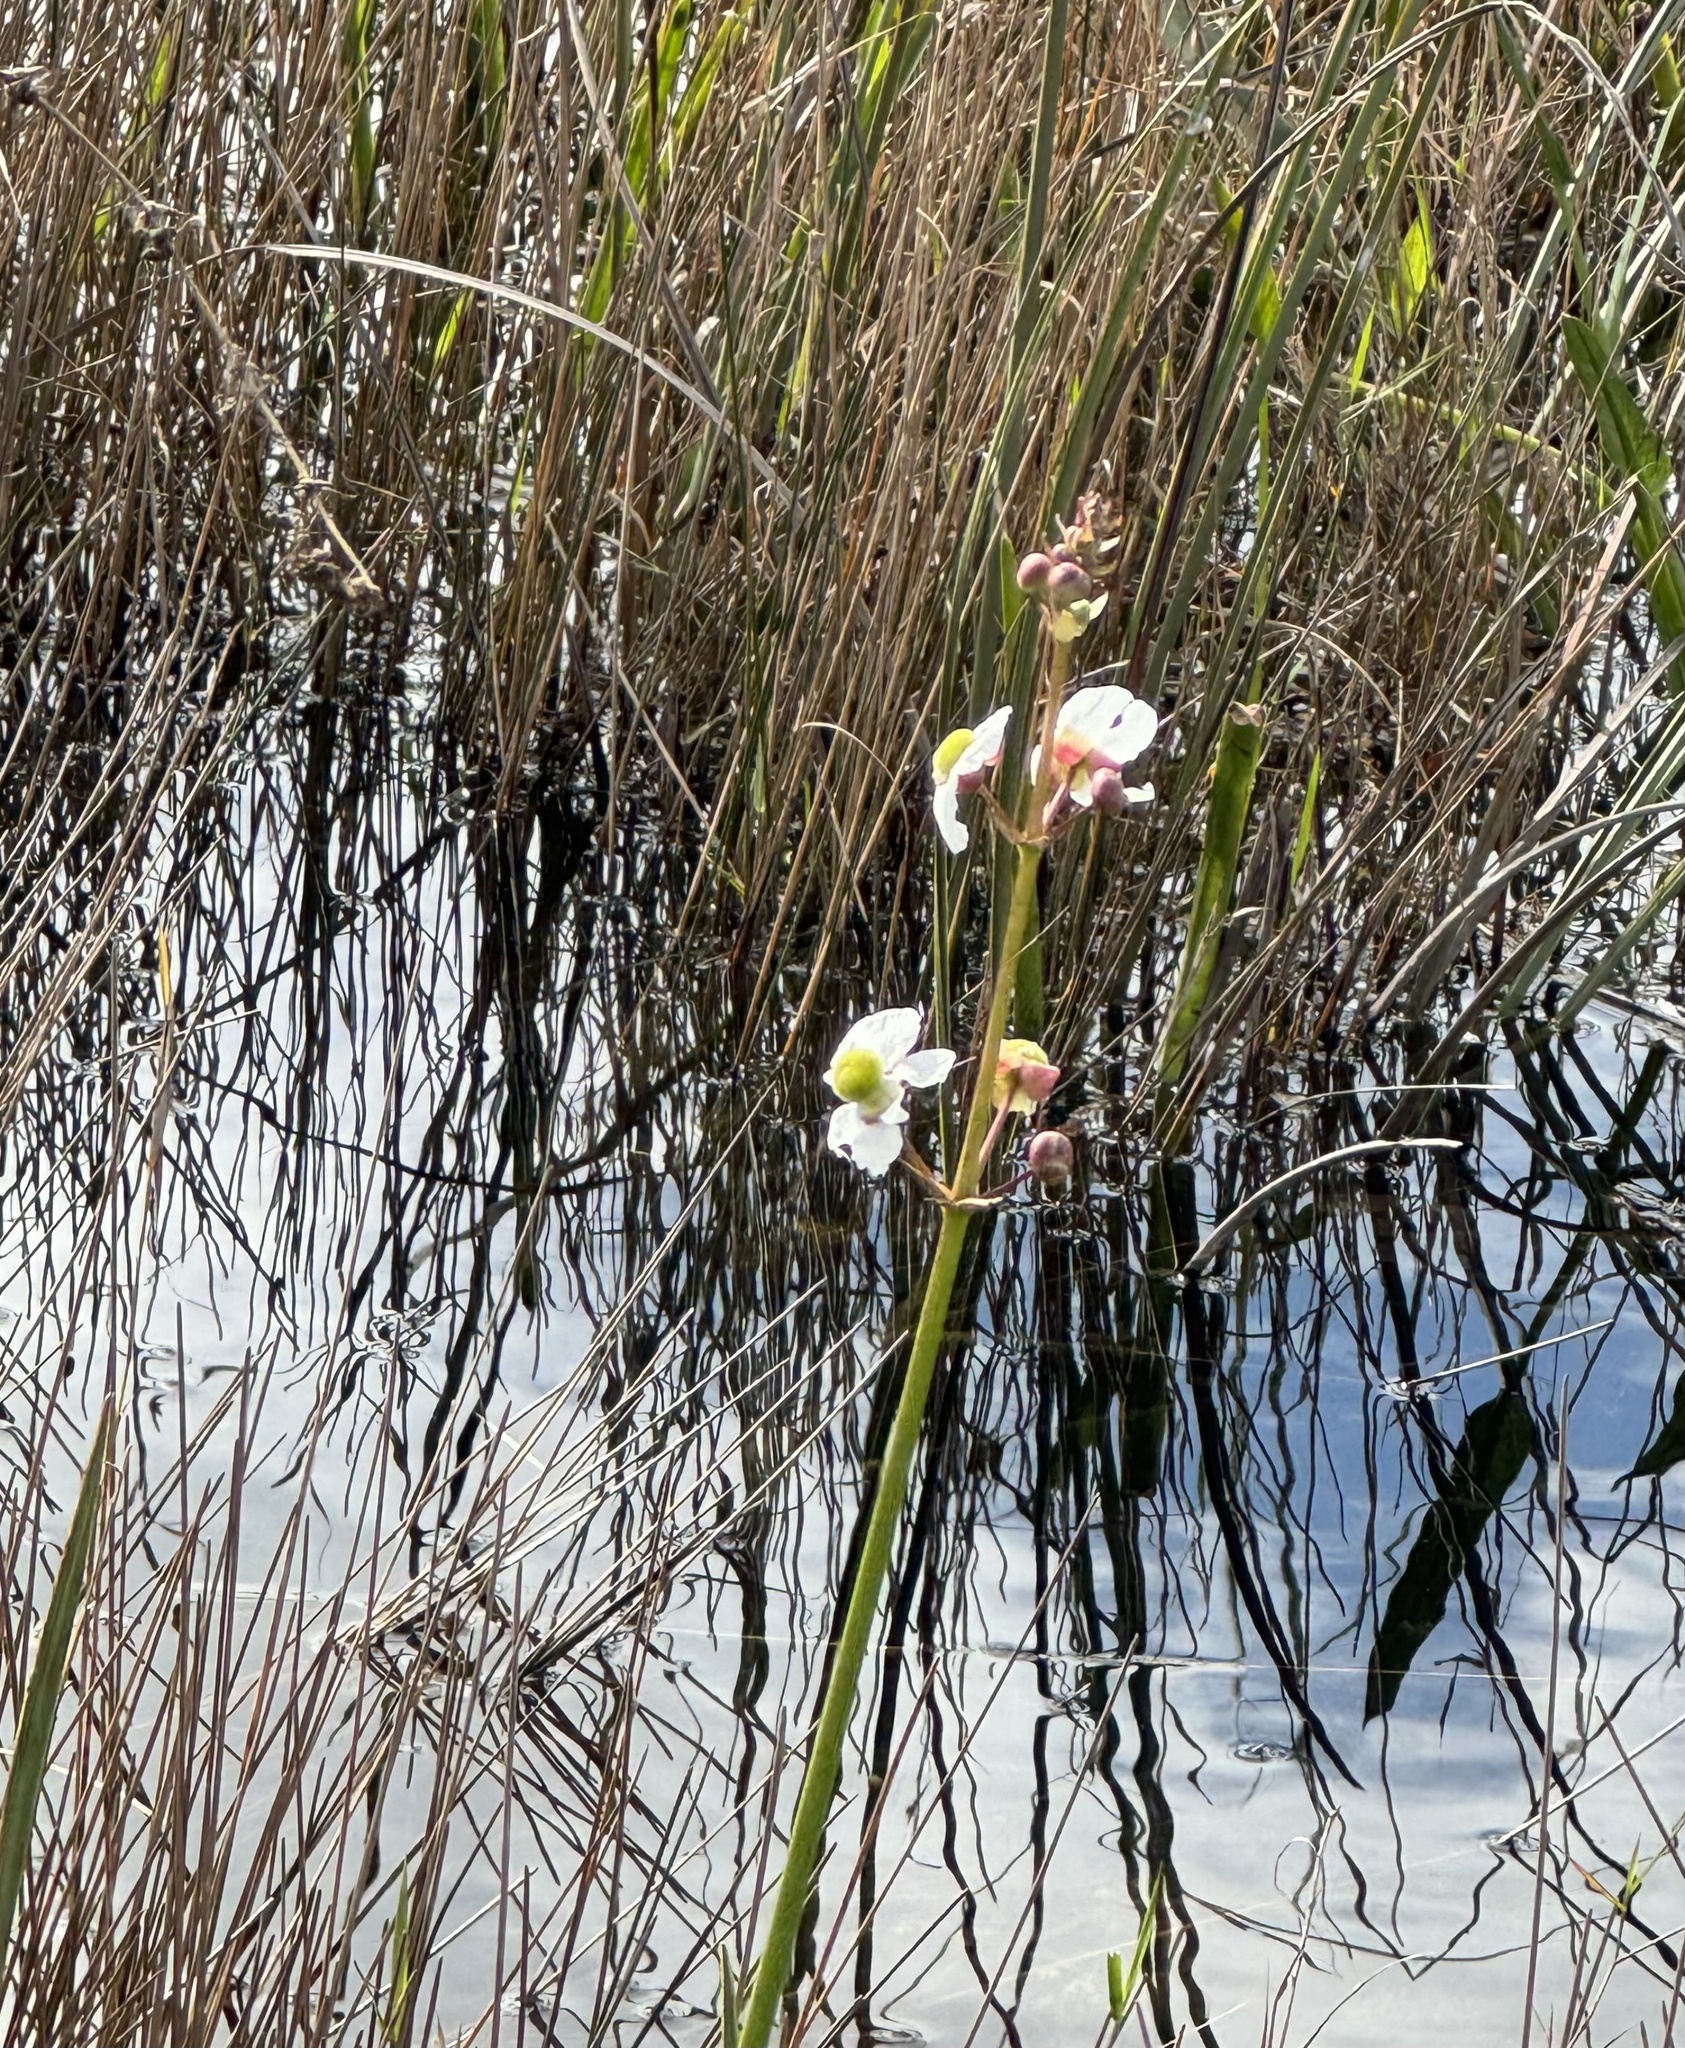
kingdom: Plantae
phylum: Tracheophyta
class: Liliopsida
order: Alismatales
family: Alismataceae
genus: Sagittaria
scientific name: Sagittaria lancifolia
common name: Lance-leaf arrowhead
